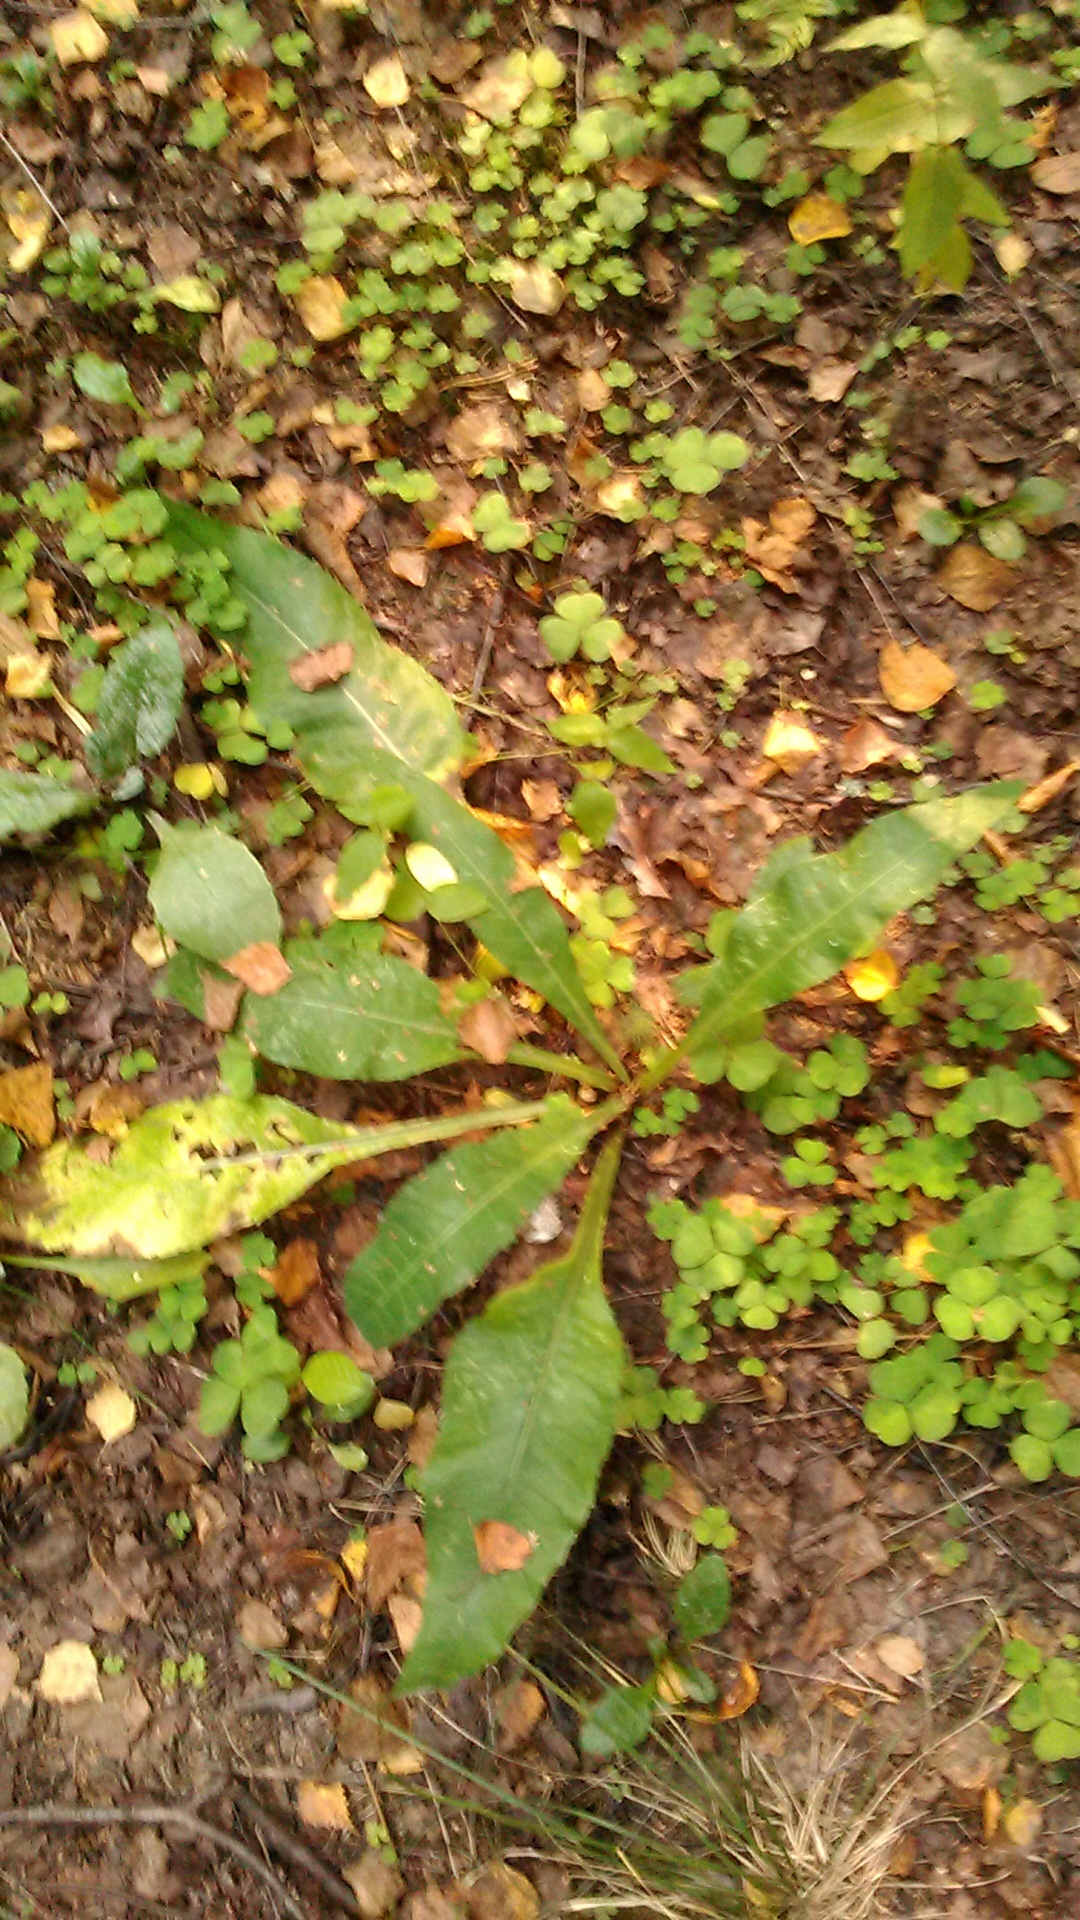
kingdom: Plantae
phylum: Tracheophyta
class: Magnoliopsida
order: Asterales
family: Asteraceae
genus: Cirsium
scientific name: Cirsium heterophyllum
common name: Melancholy thistle
